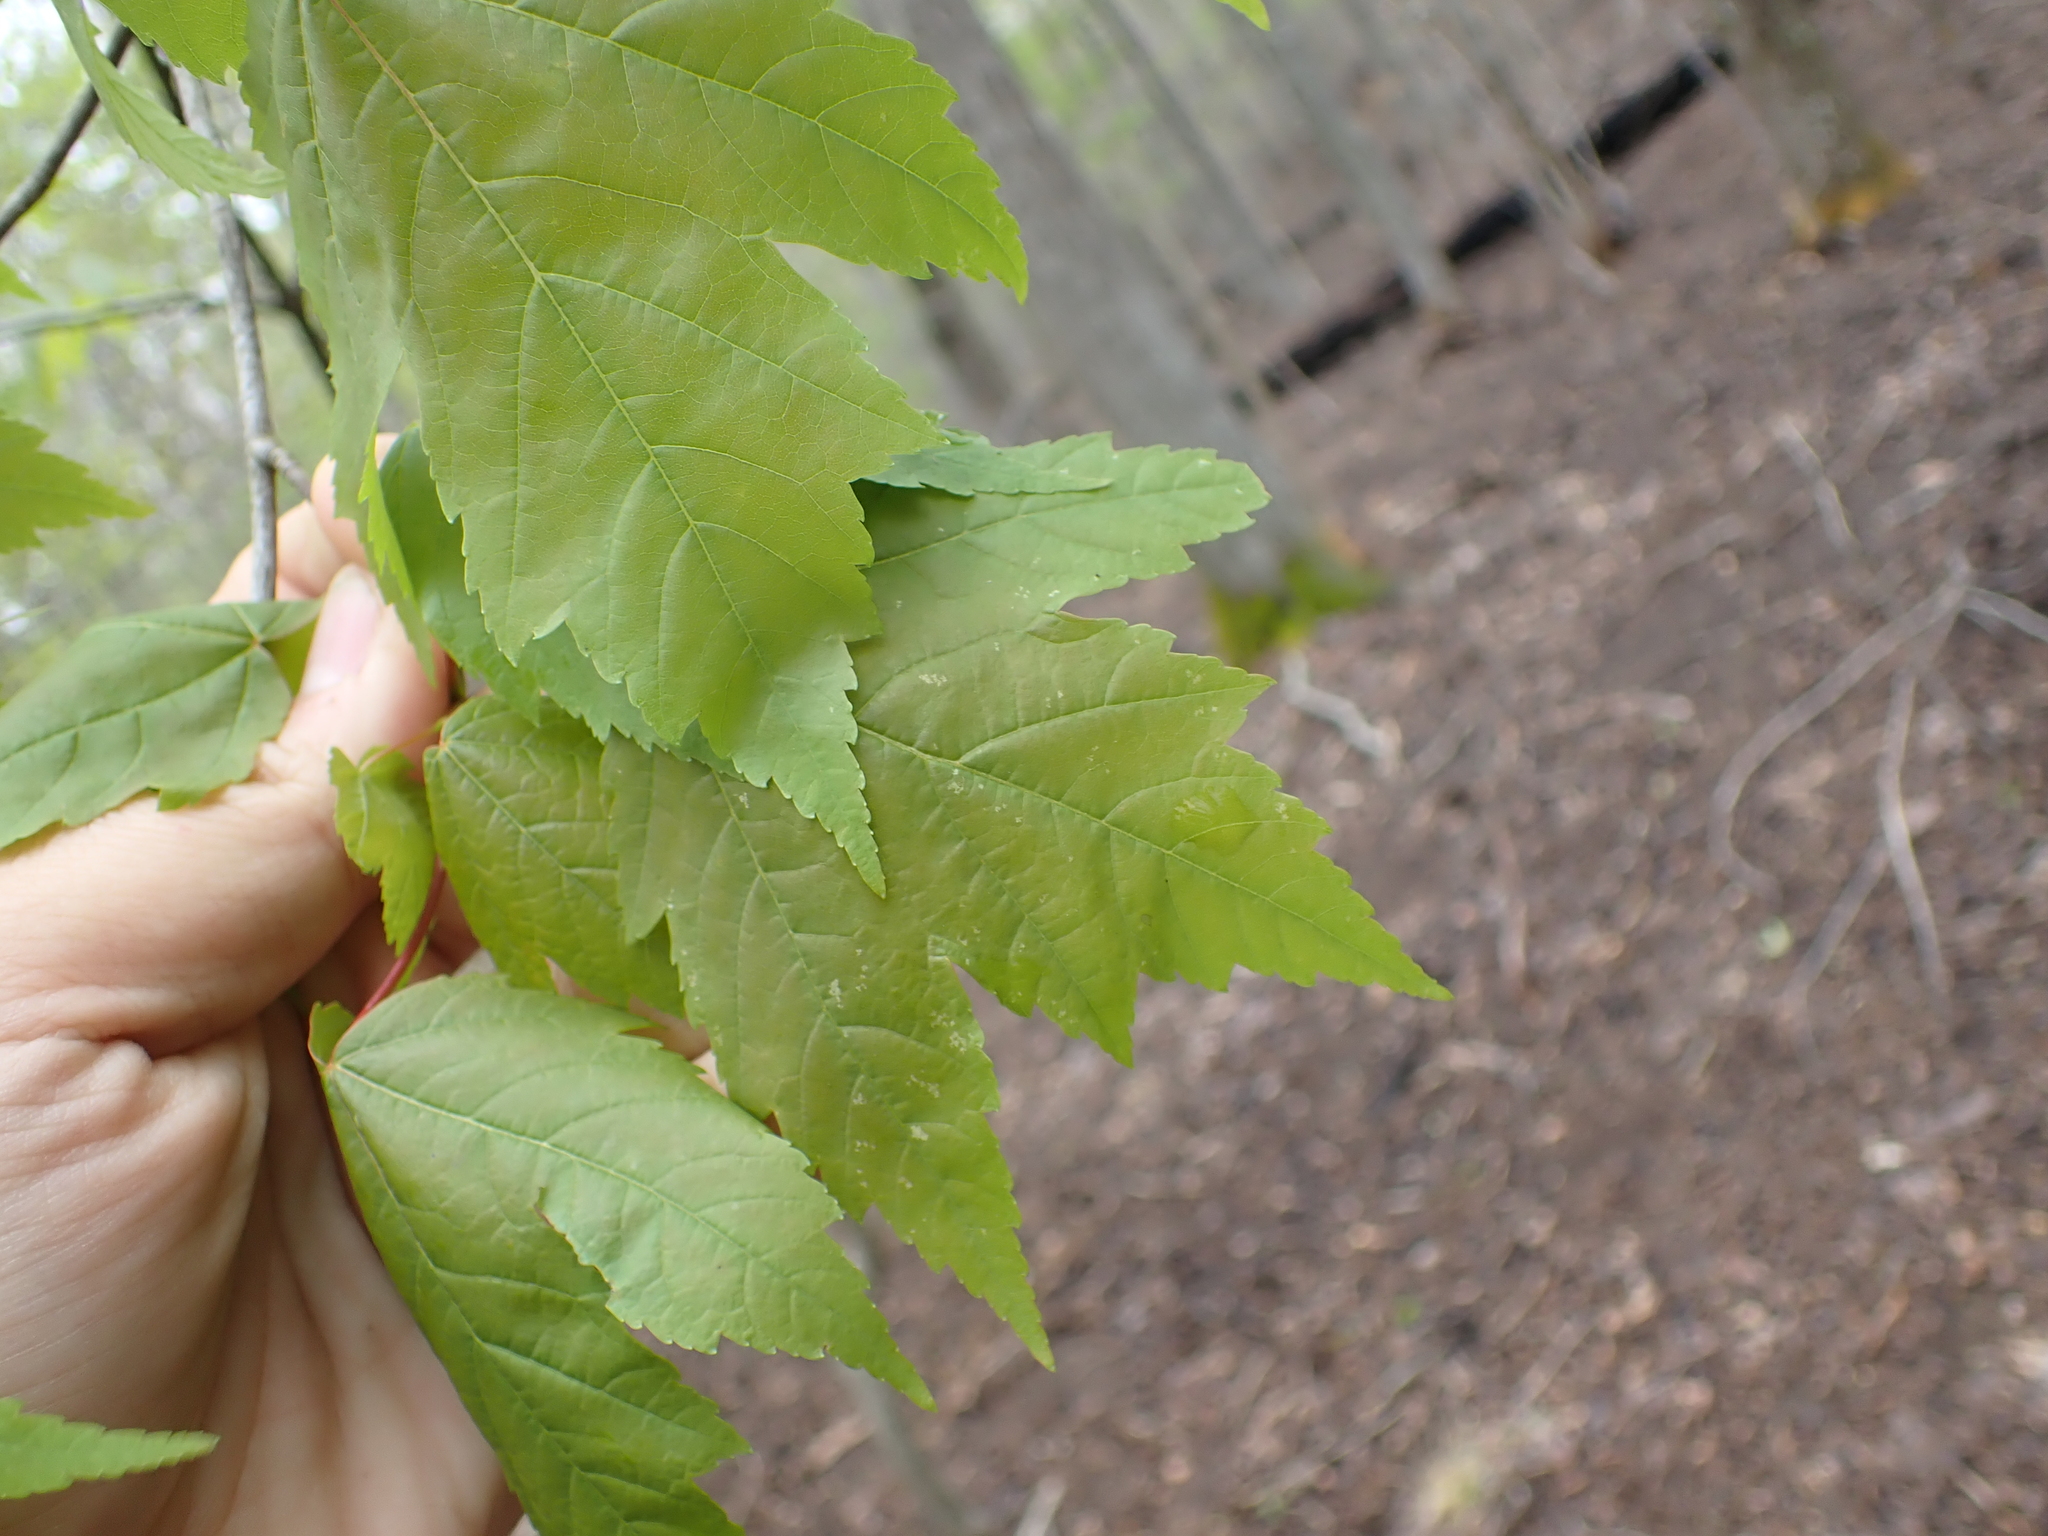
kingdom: Plantae
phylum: Tracheophyta
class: Magnoliopsida
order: Sapindales
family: Sapindaceae
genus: Acer
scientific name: Acer rubrum
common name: Red maple
